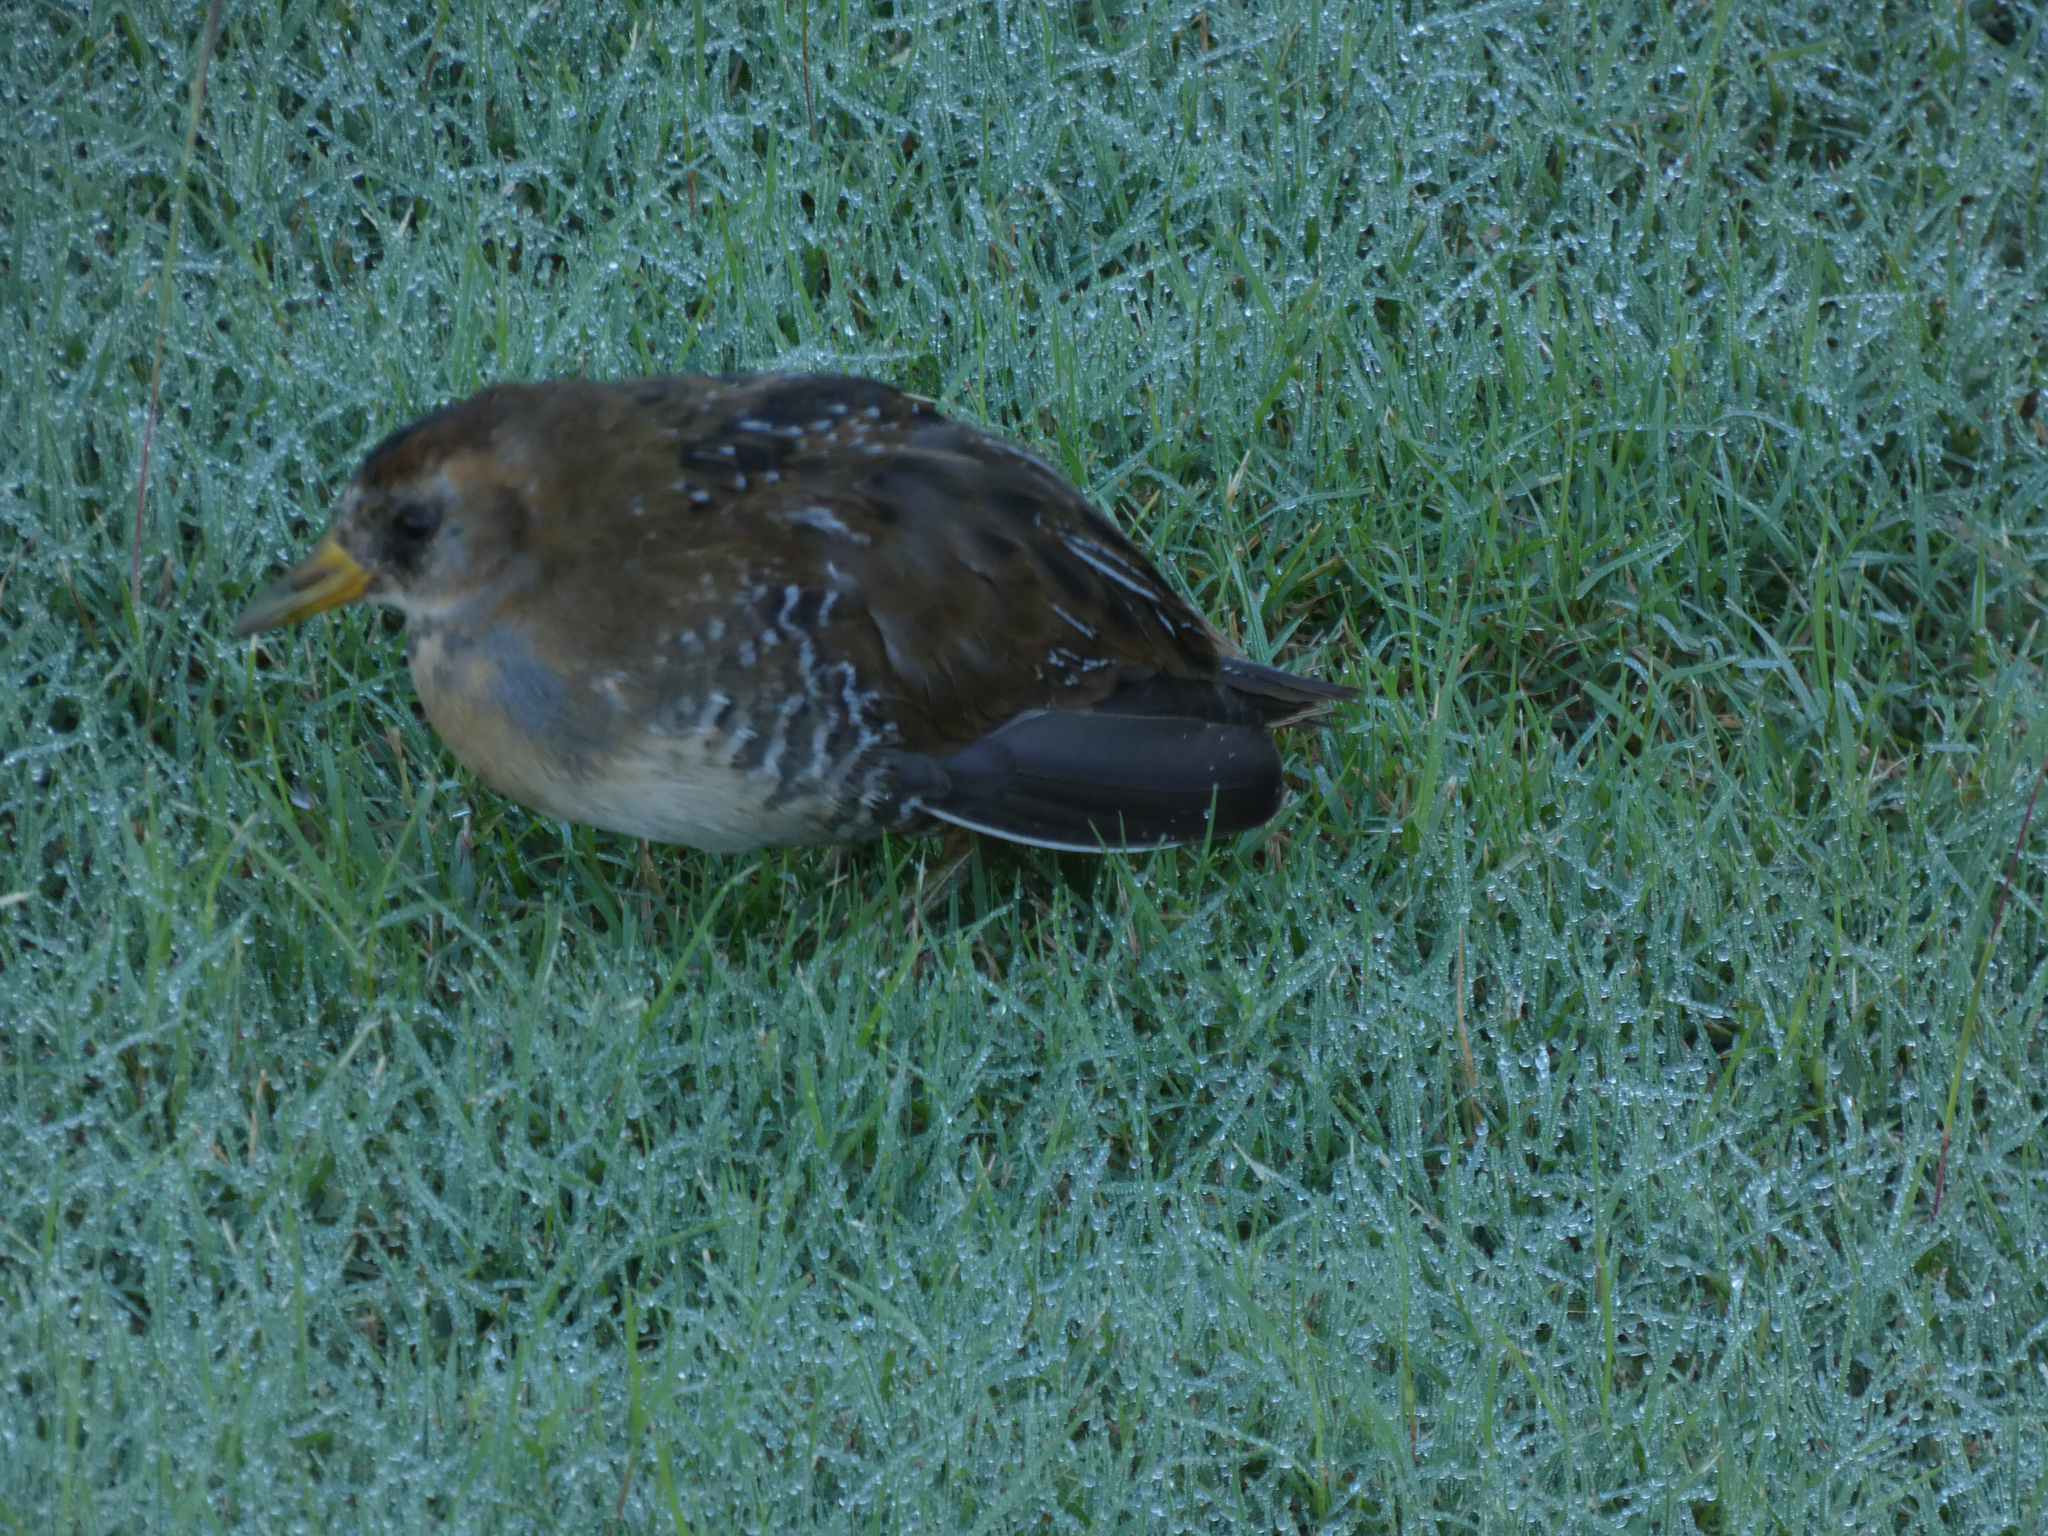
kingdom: Animalia
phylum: Chordata
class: Aves
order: Gruiformes
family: Rallidae
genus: Porzana
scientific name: Porzana carolina
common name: Sora
